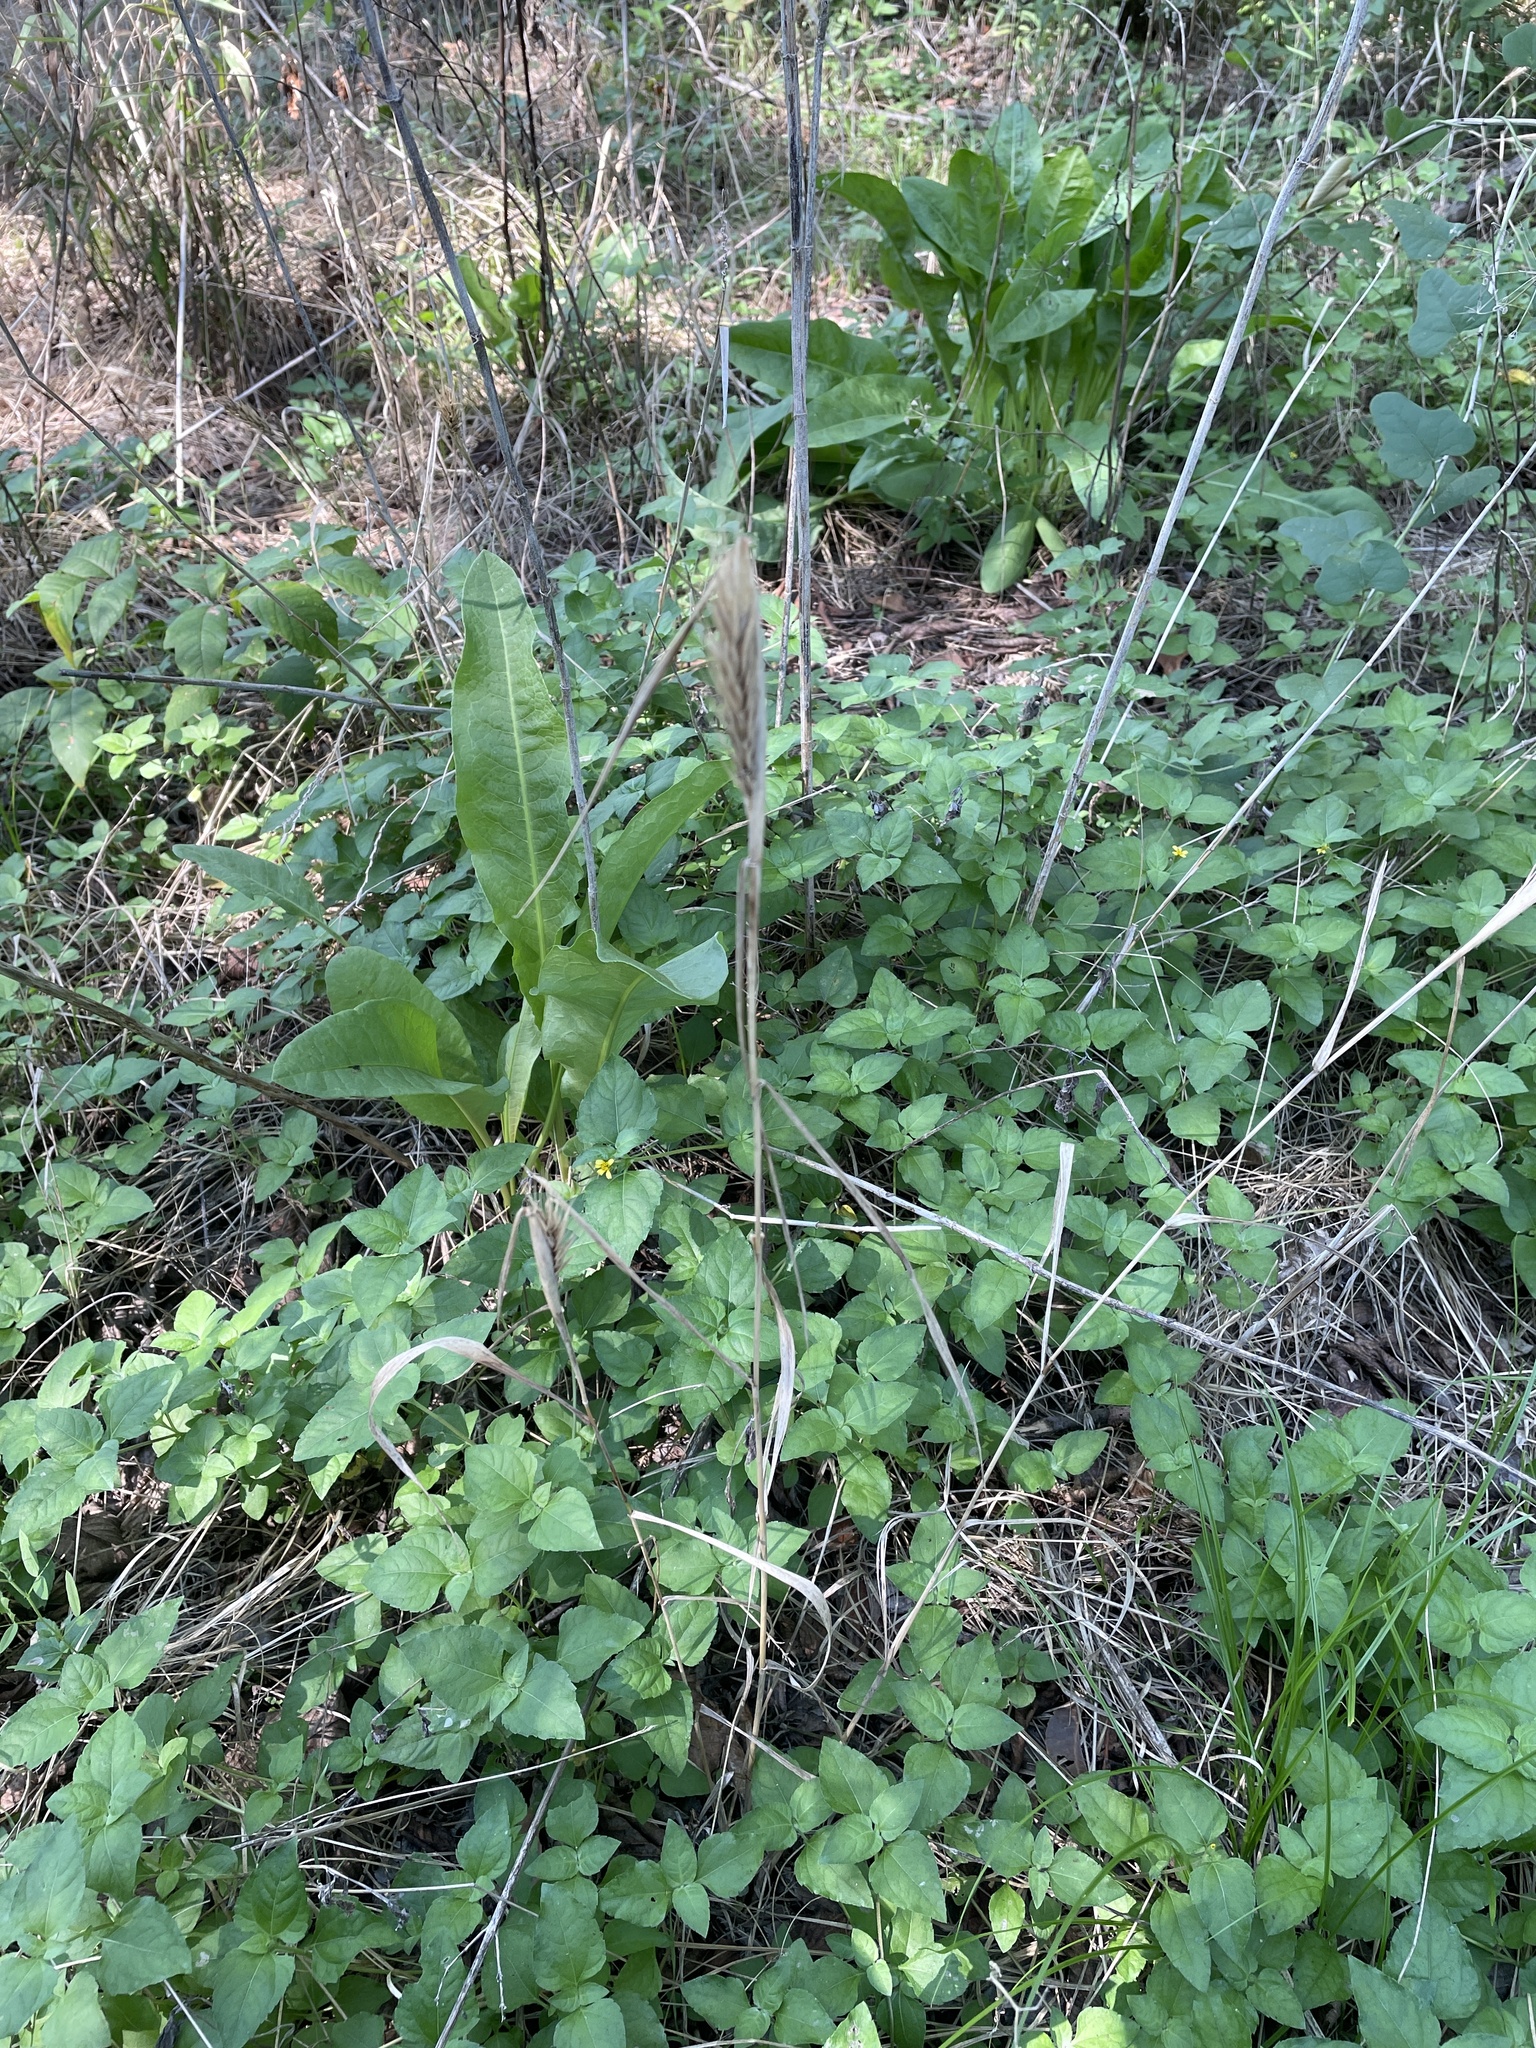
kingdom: Plantae
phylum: Tracheophyta
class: Liliopsida
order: Poales
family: Poaceae
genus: Elymus
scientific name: Elymus virginicus
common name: Common eastern wildrye
